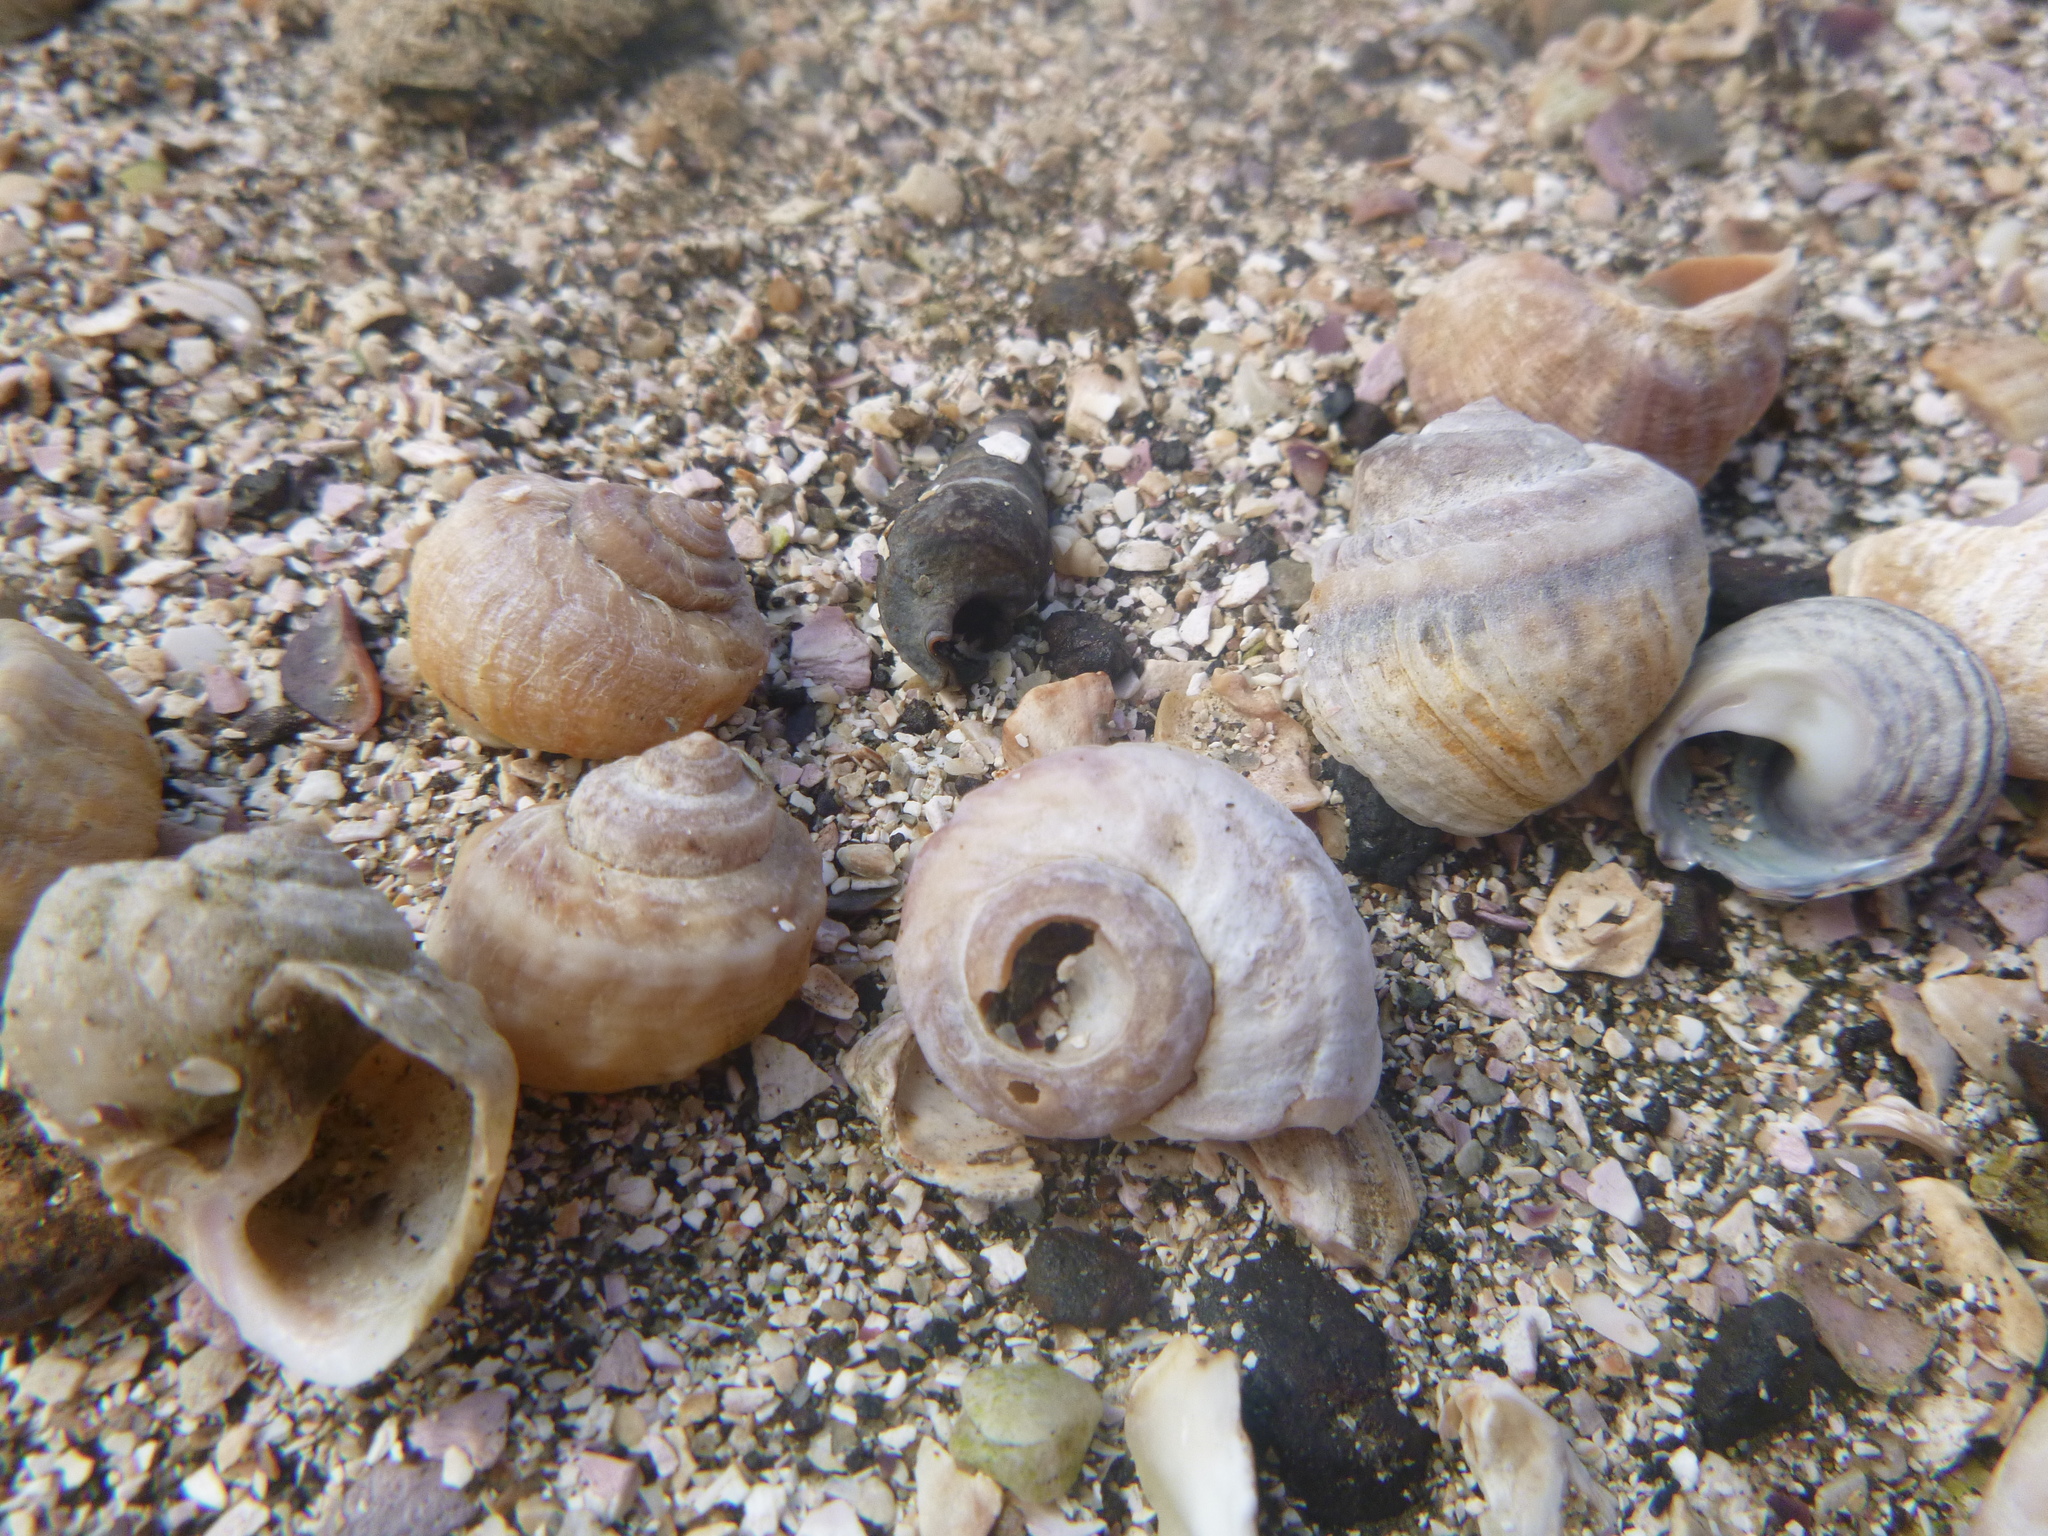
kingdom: Animalia
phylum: Mollusca
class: Gastropoda
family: Amphibolidae
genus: Amphibola
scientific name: Amphibola crenata
